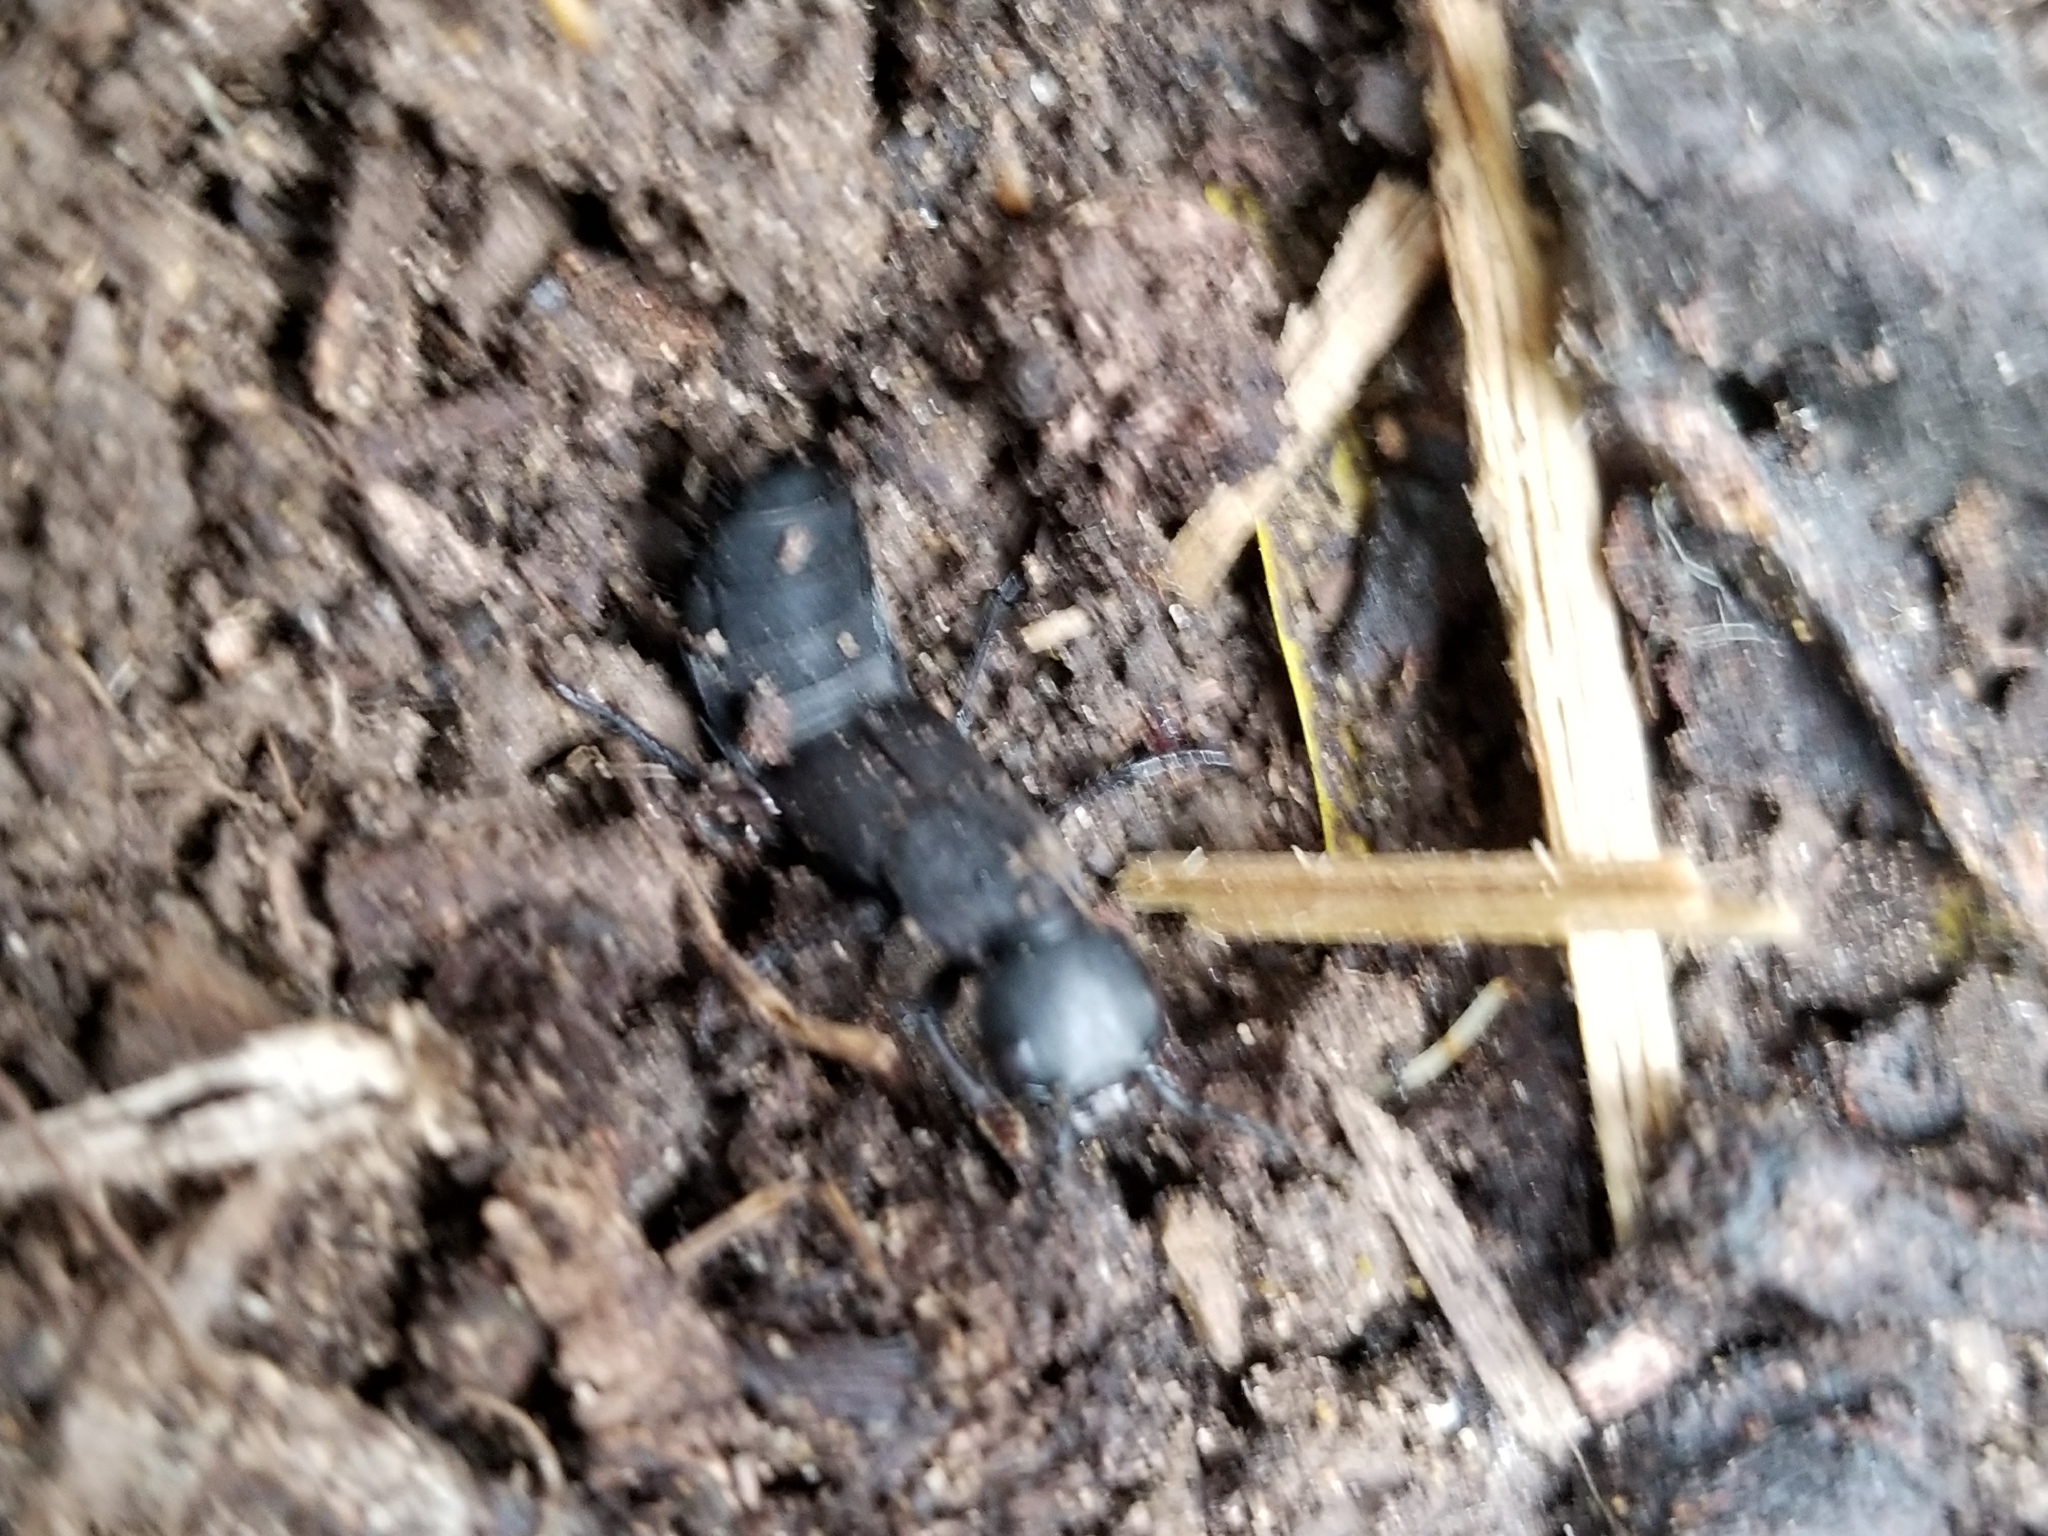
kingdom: Animalia
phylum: Arthropoda
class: Insecta
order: Coleoptera
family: Staphylinidae
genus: Ocypus
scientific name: Ocypus olens
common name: Devil's coach-horse
